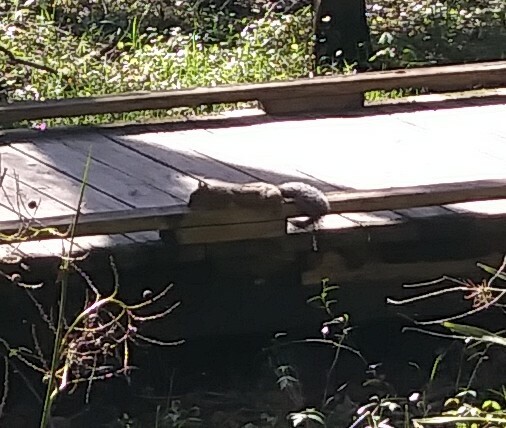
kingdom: Animalia
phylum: Chordata
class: Mammalia
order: Rodentia
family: Sciuridae
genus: Sciurus
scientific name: Sciurus carolinensis
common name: Eastern gray squirrel
